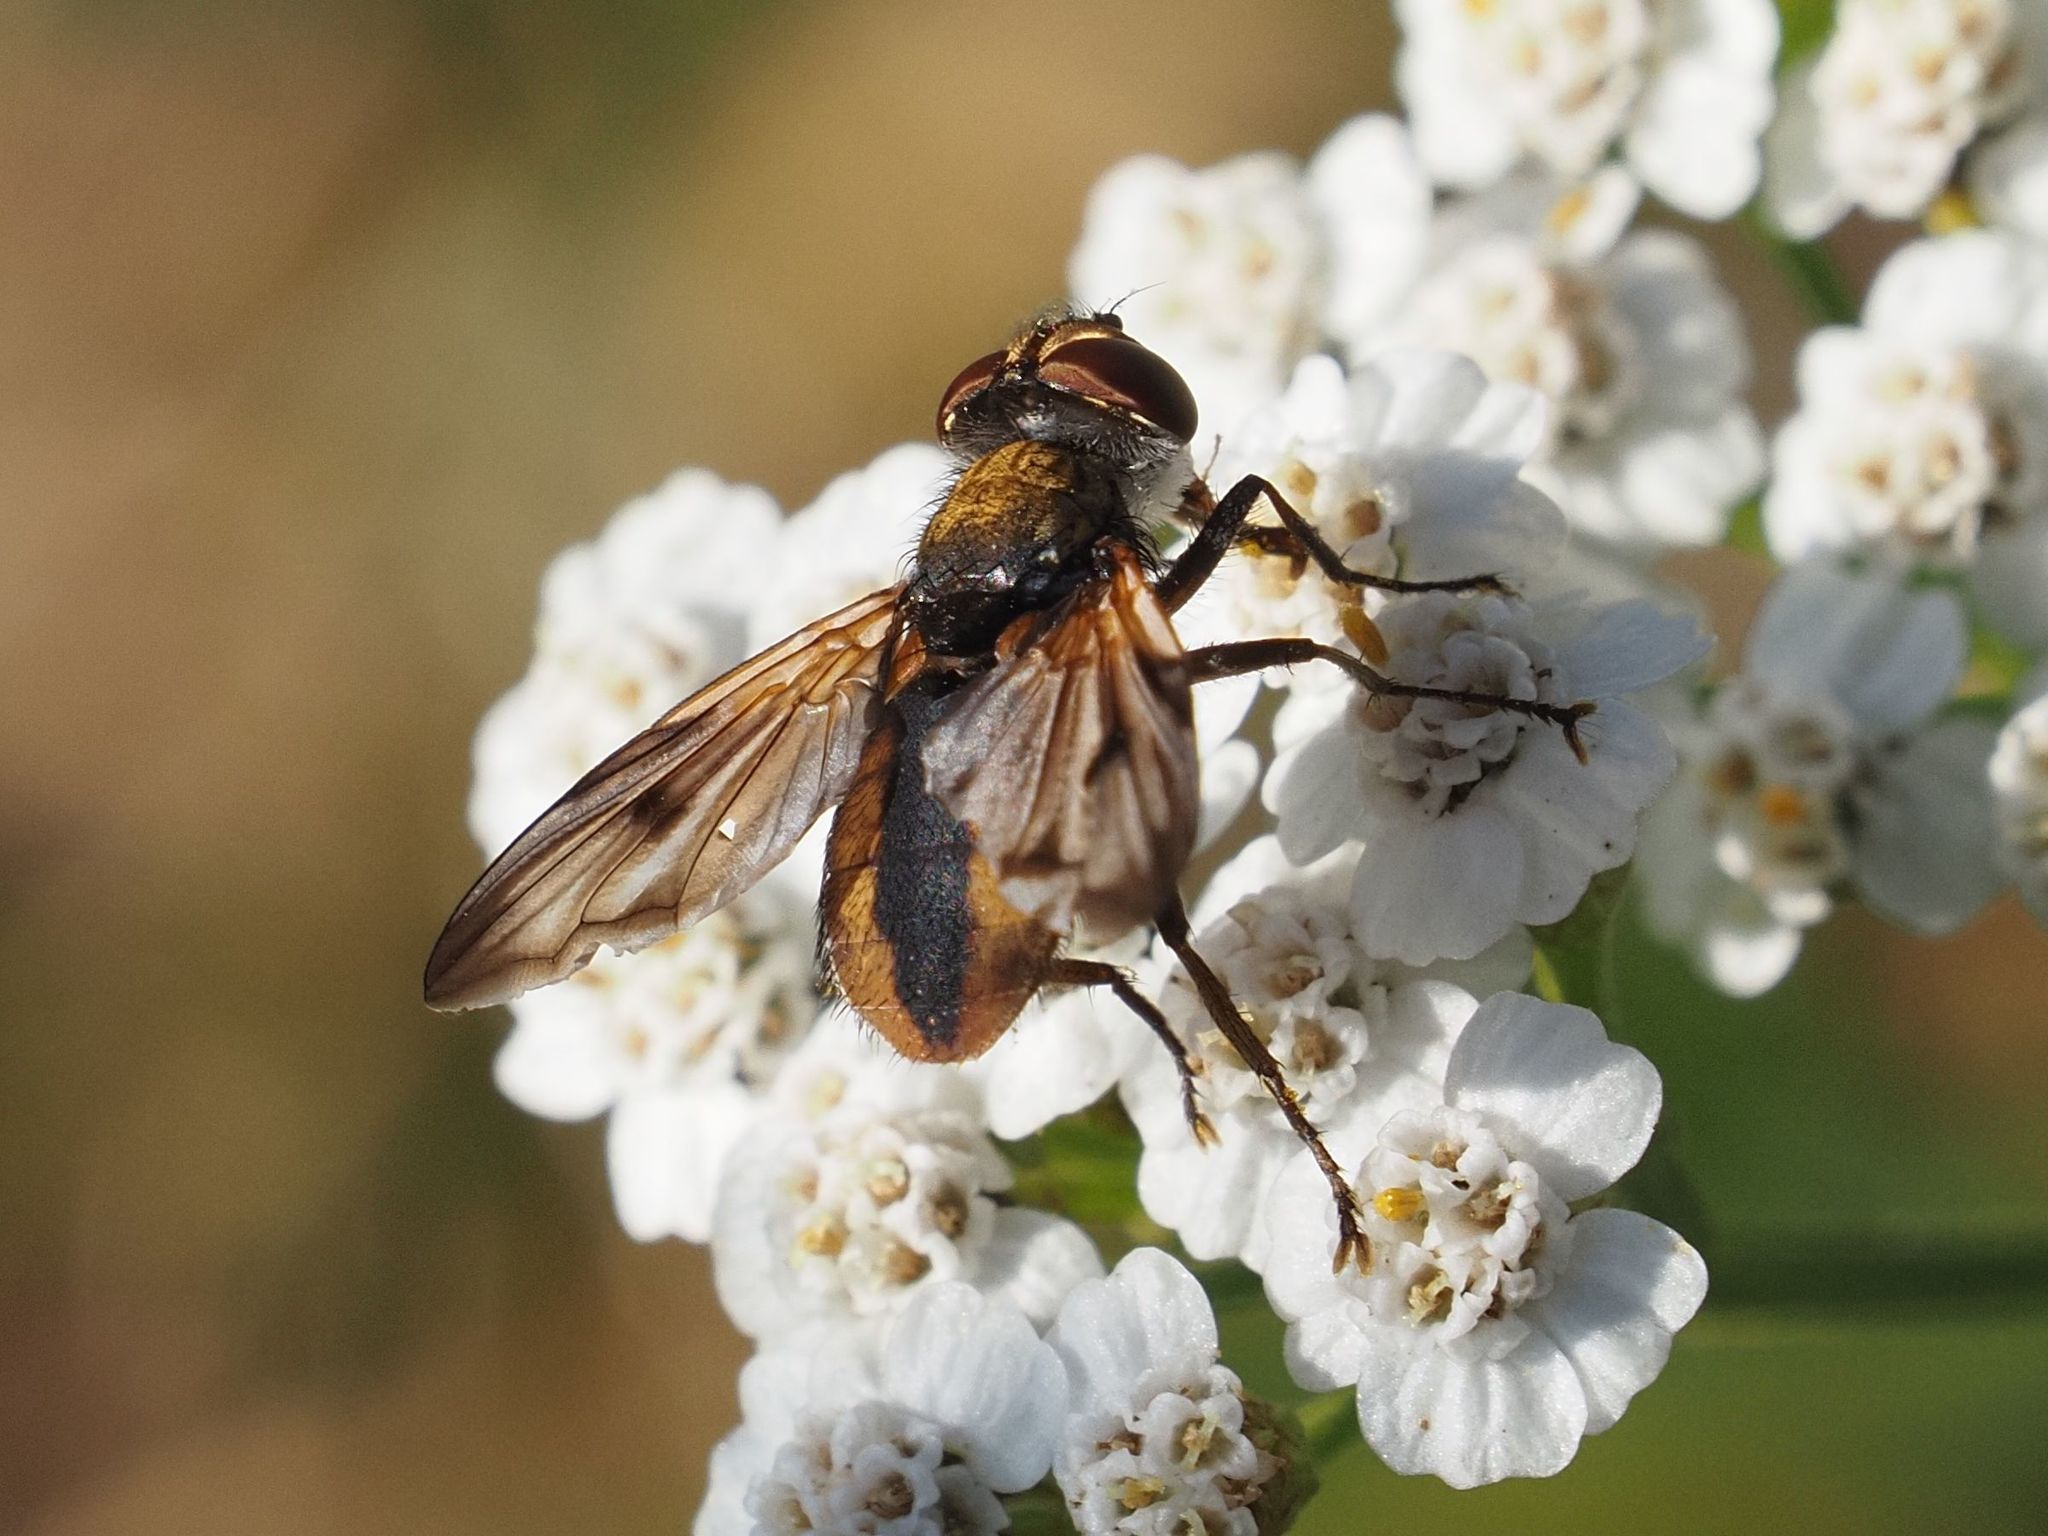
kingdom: Animalia
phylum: Arthropoda
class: Insecta
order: Diptera
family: Tachinidae
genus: Ectophasia
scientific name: Ectophasia crassipennis
